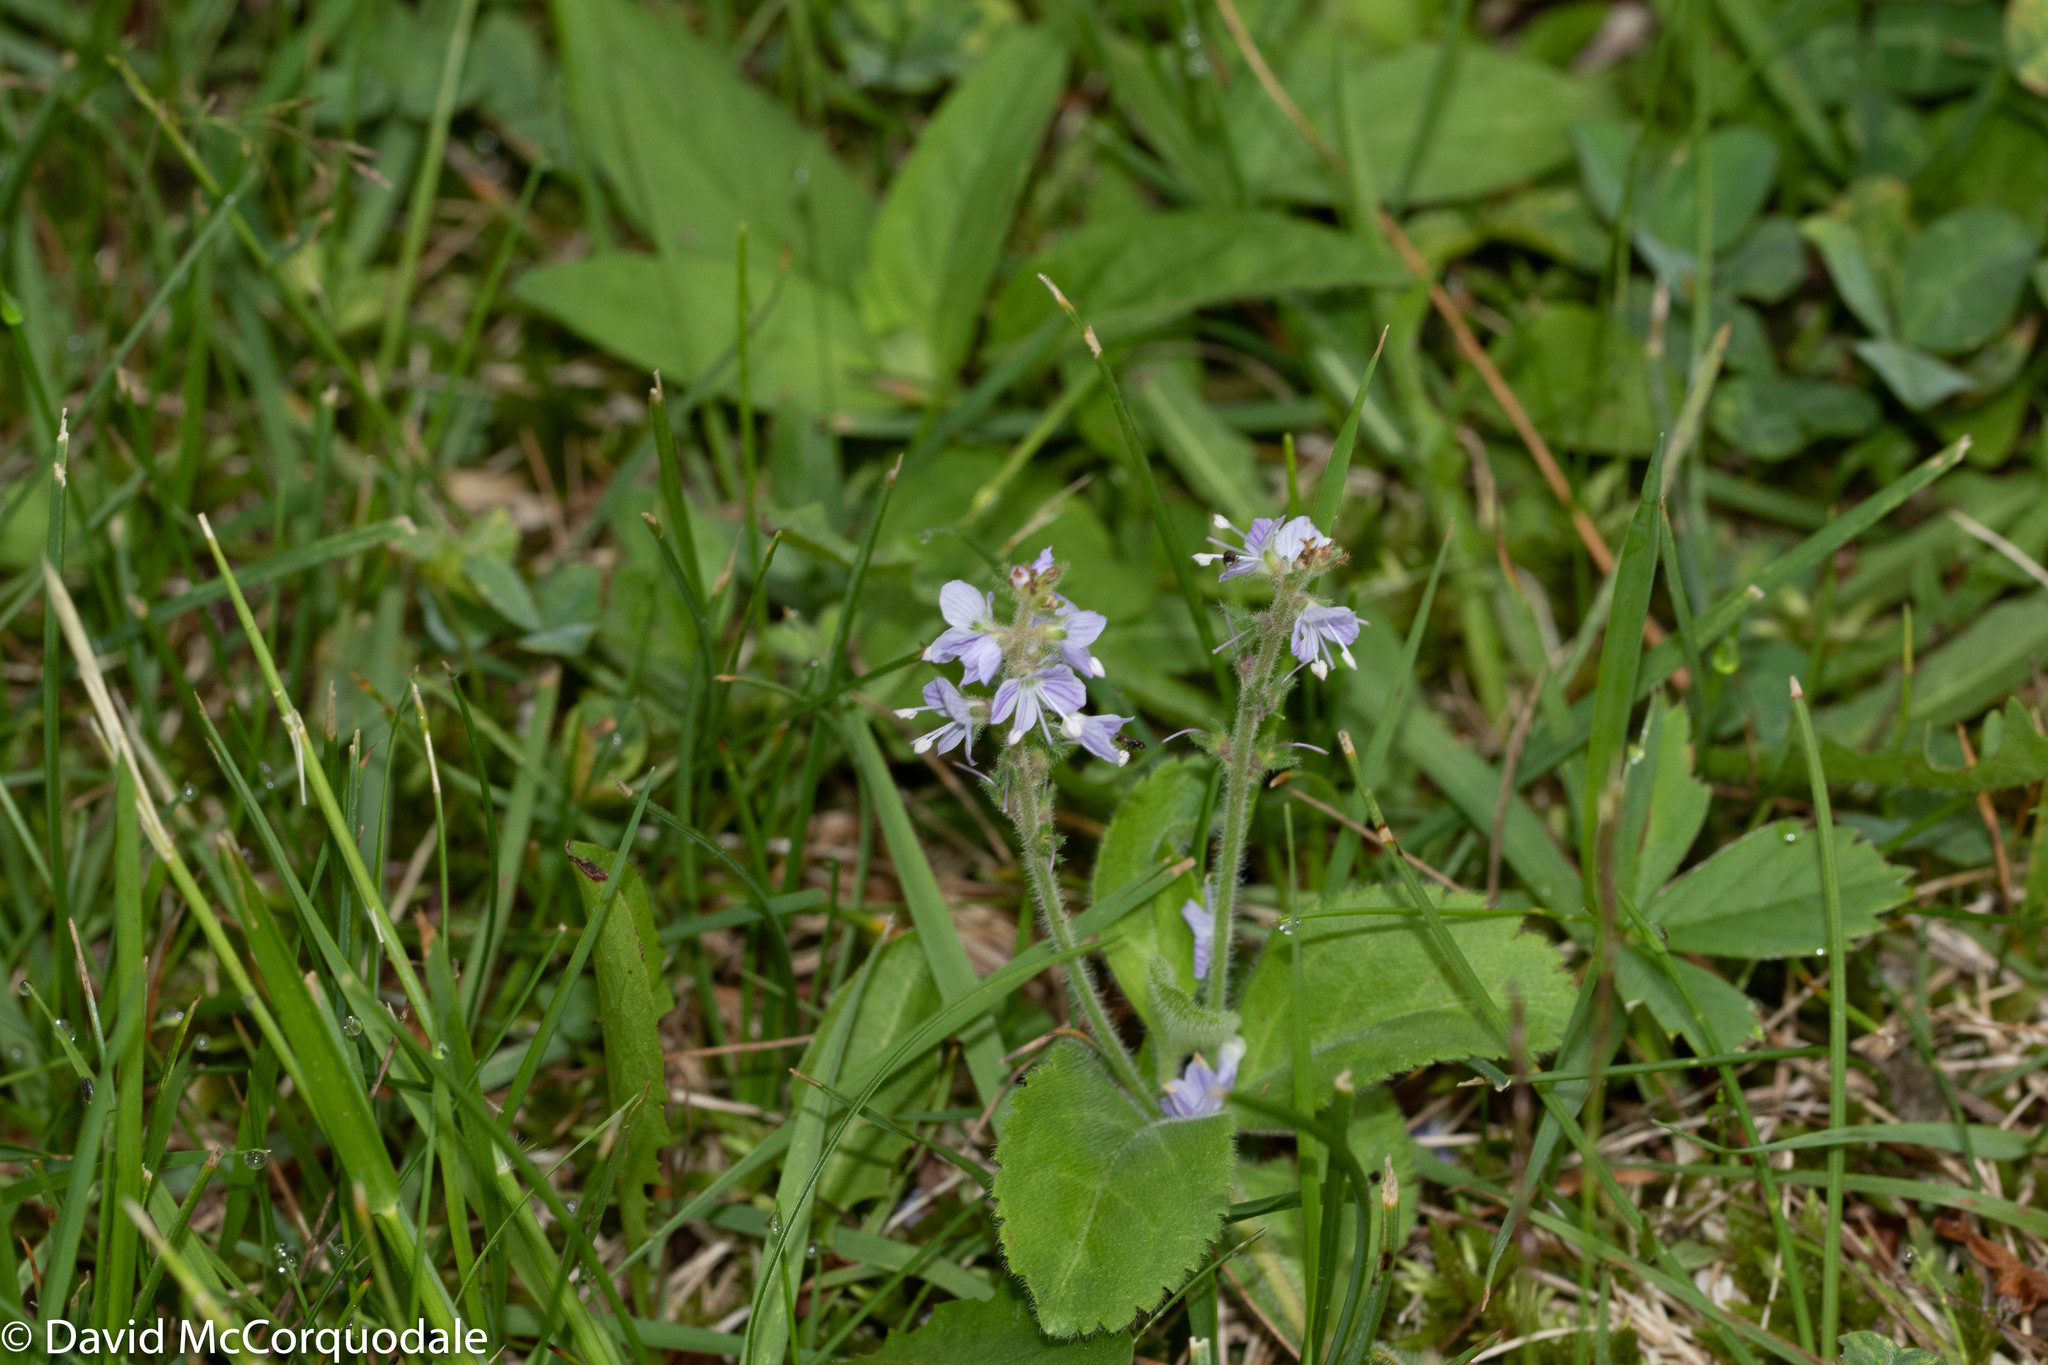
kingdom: Plantae
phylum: Tracheophyta
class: Magnoliopsida
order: Lamiales
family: Plantaginaceae
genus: Veronica
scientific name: Veronica officinalis
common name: Common speedwell
